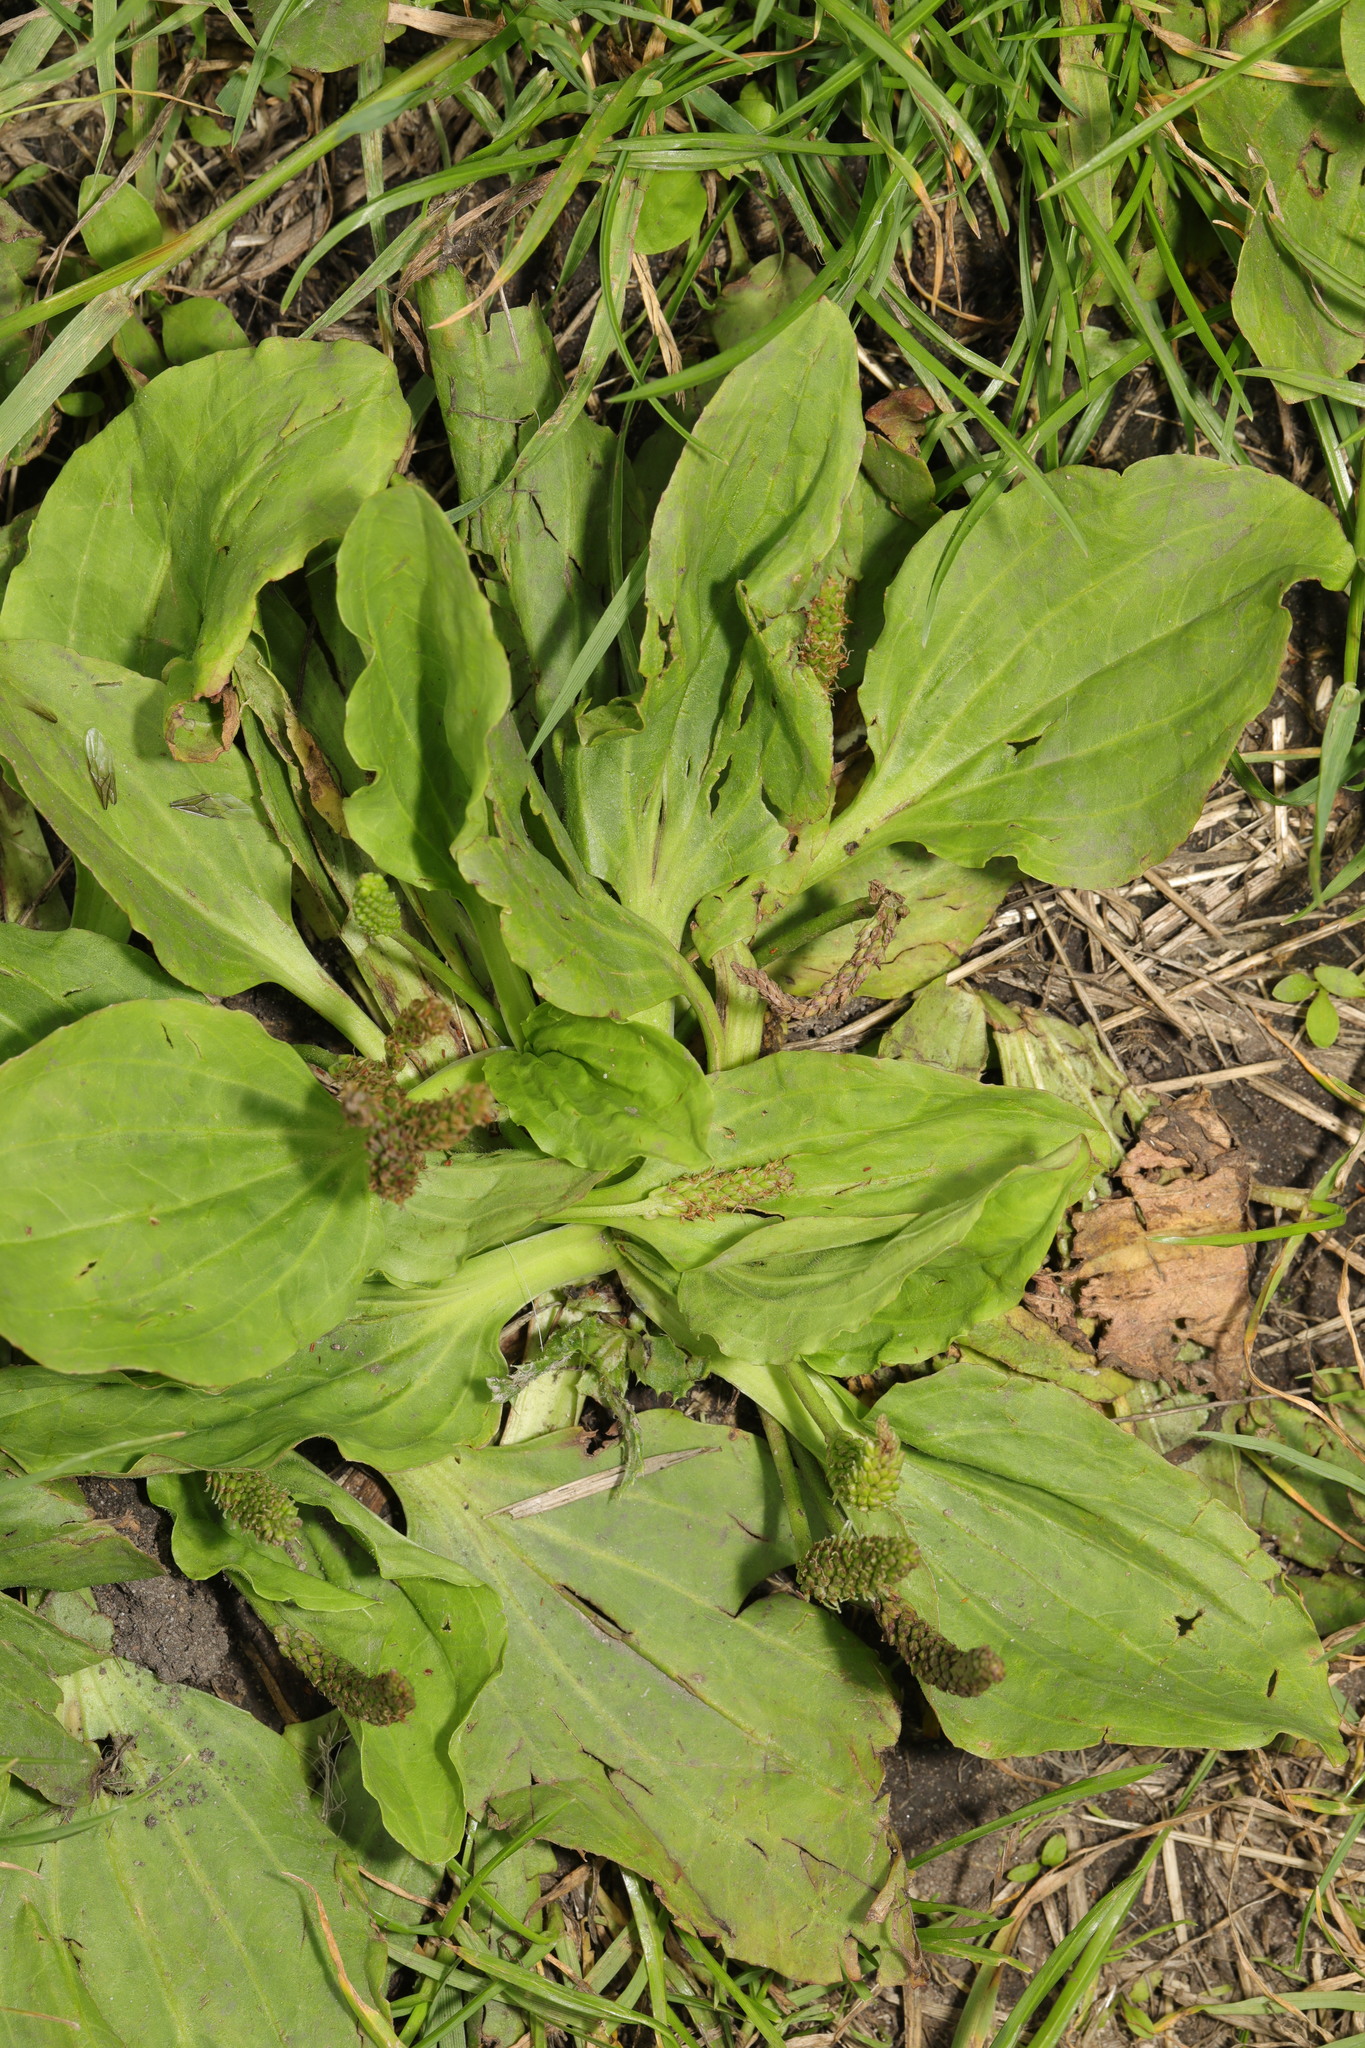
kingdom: Plantae
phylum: Tracheophyta
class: Magnoliopsida
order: Lamiales
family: Plantaginaceae
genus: Plantago
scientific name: Plantago major
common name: Common plantain
